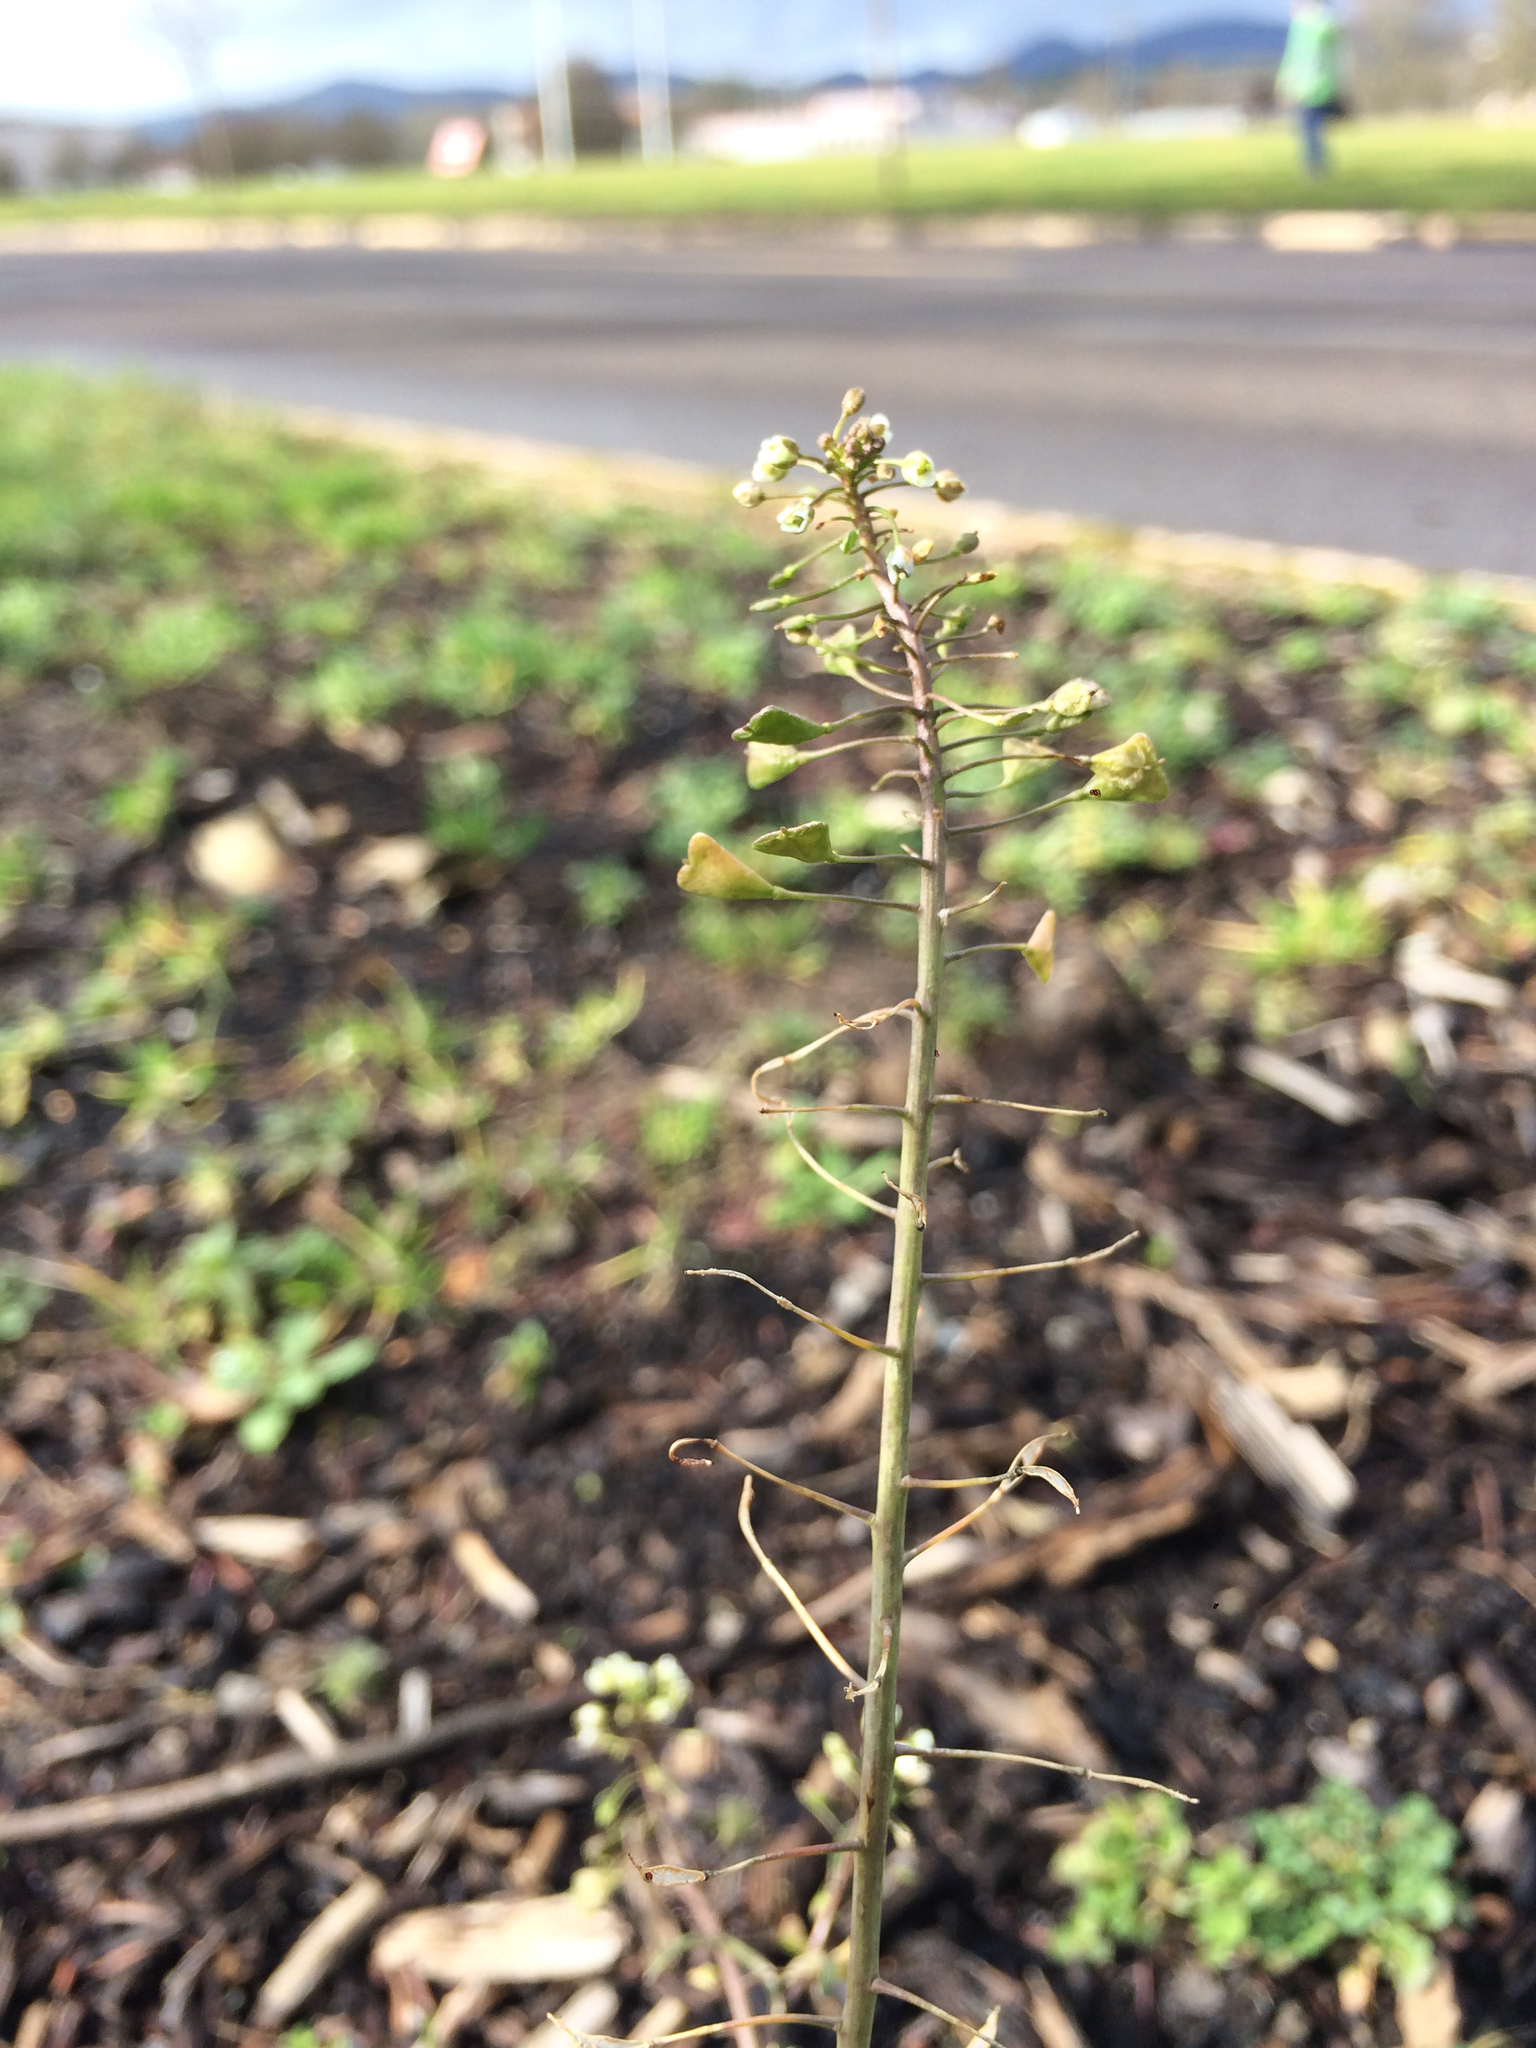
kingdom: Plantae
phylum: Tracheophyta
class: Magnoliopsida
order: Brassicales
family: Brassicaceae
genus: Capsella
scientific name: Capsella bursa-pastoris
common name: Shepherd's purse
